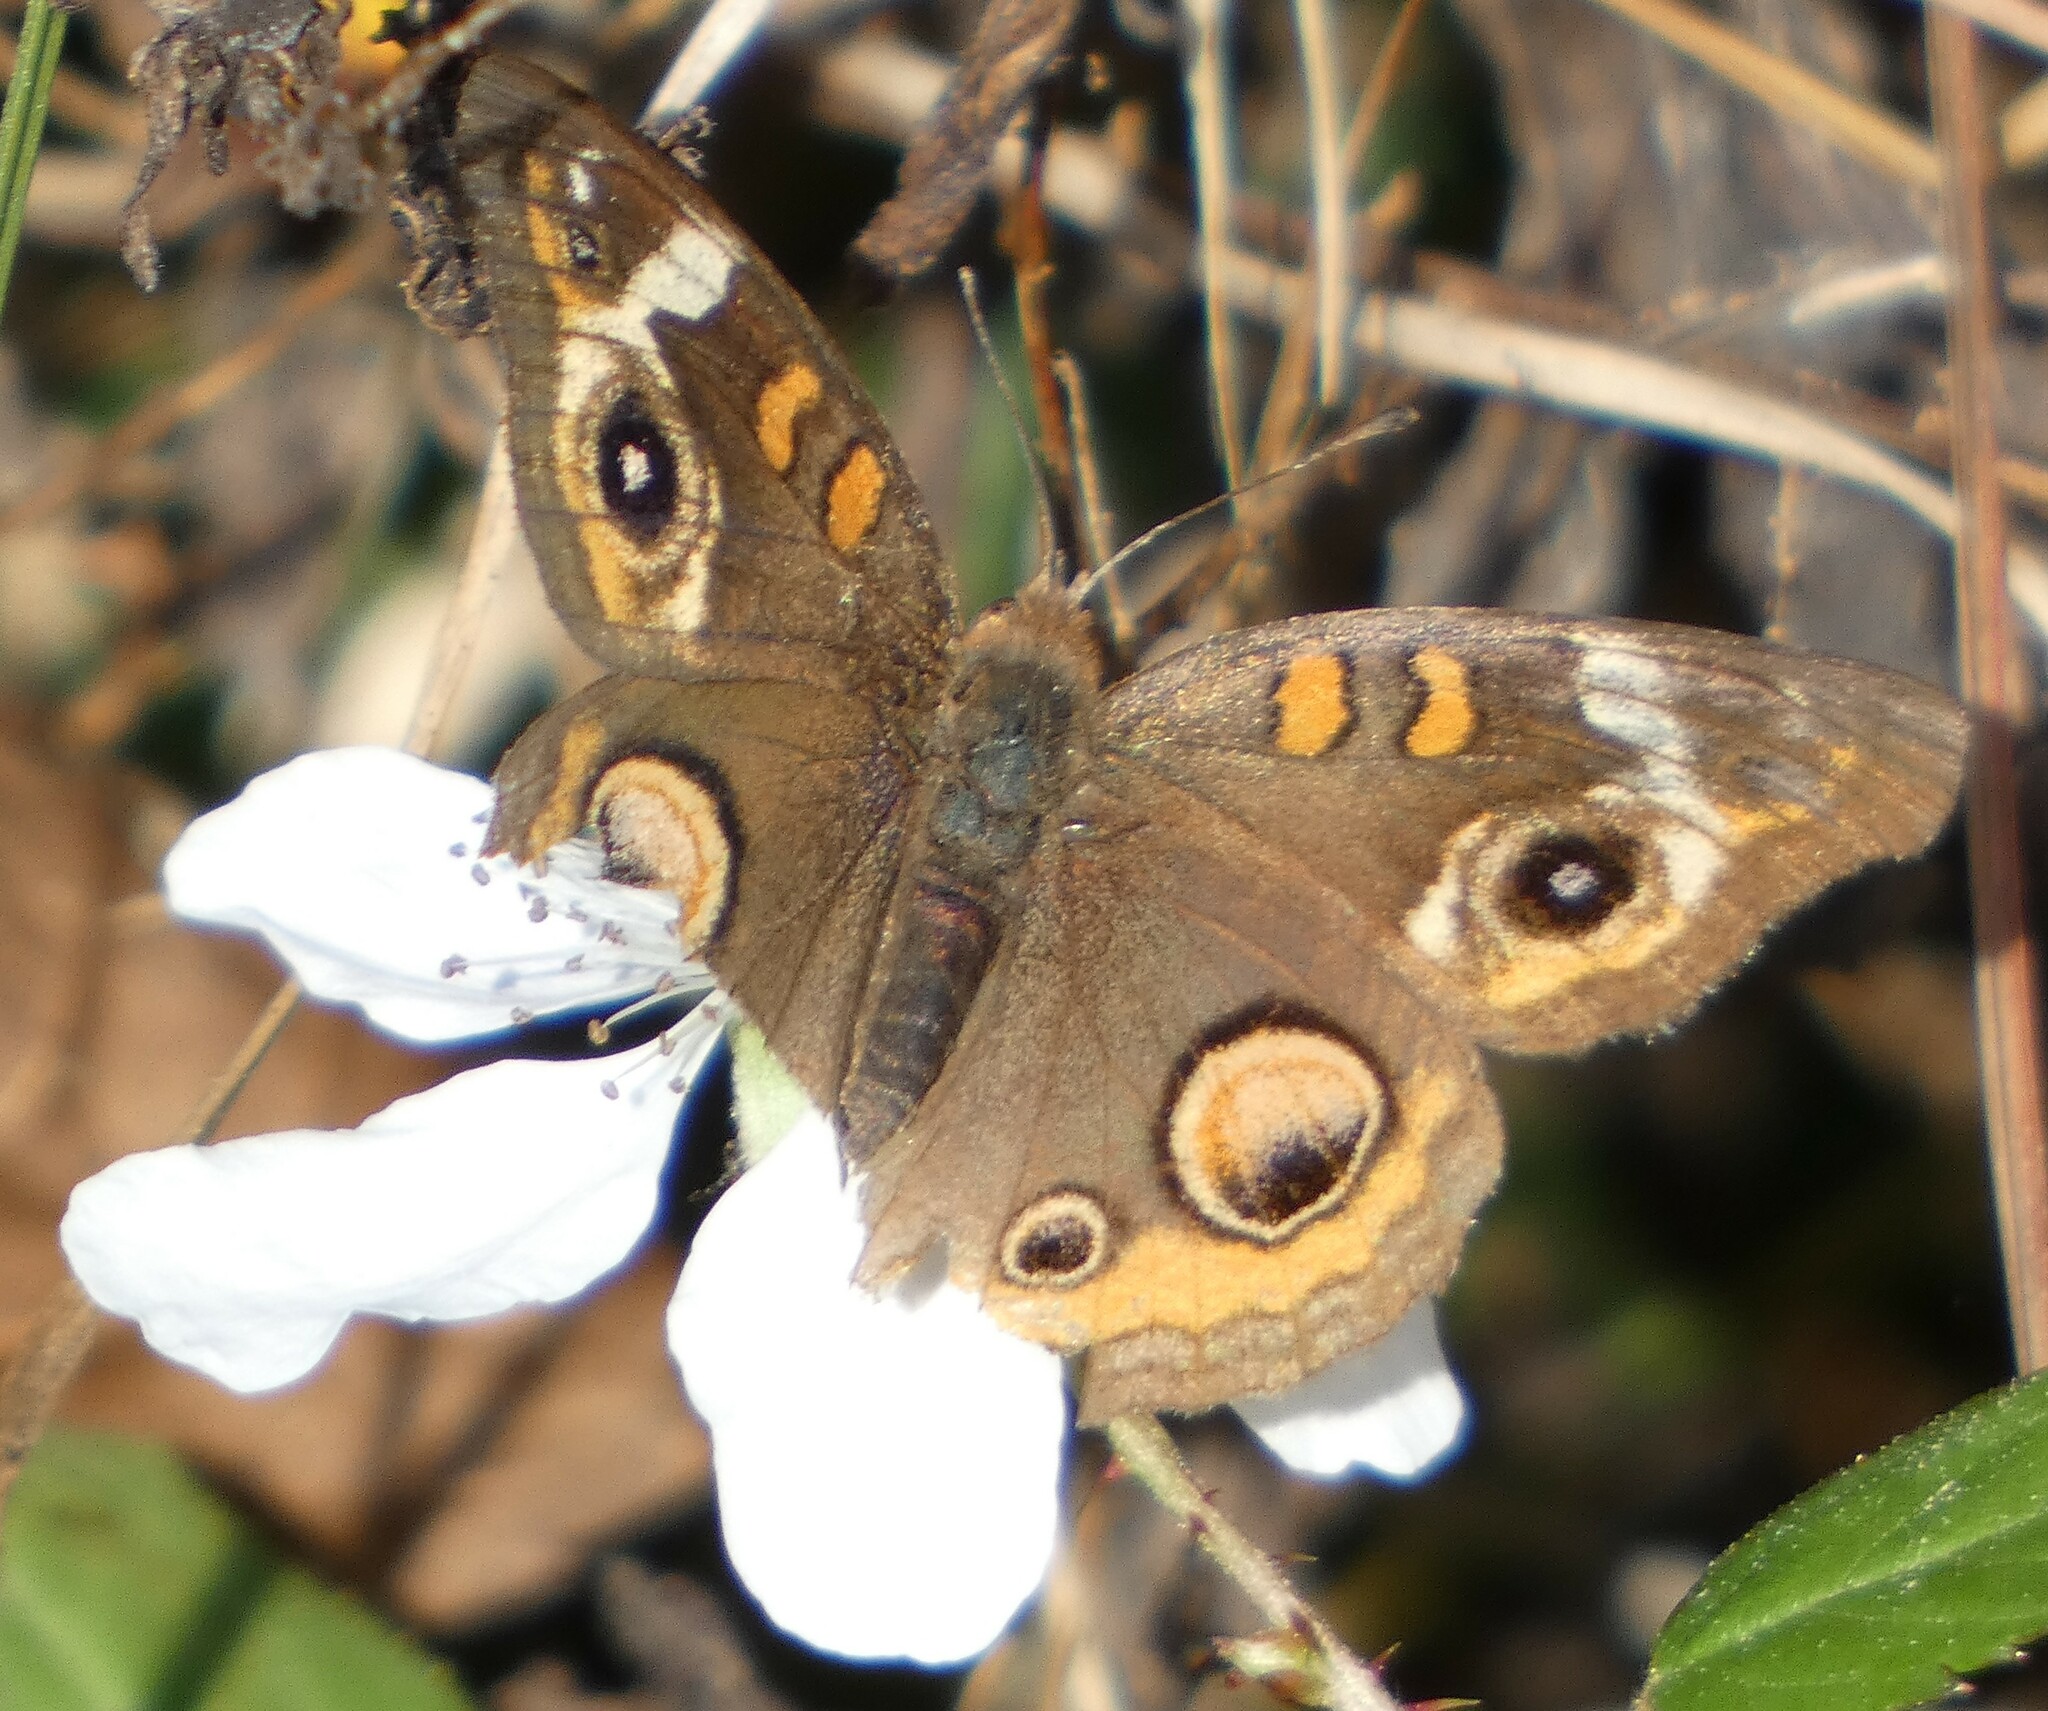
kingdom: Animalia
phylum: Arthropoda
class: Insecta
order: Lepidoptera
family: Nymphalidae
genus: Junonia
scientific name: Junonia coenia
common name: Common buckeye
